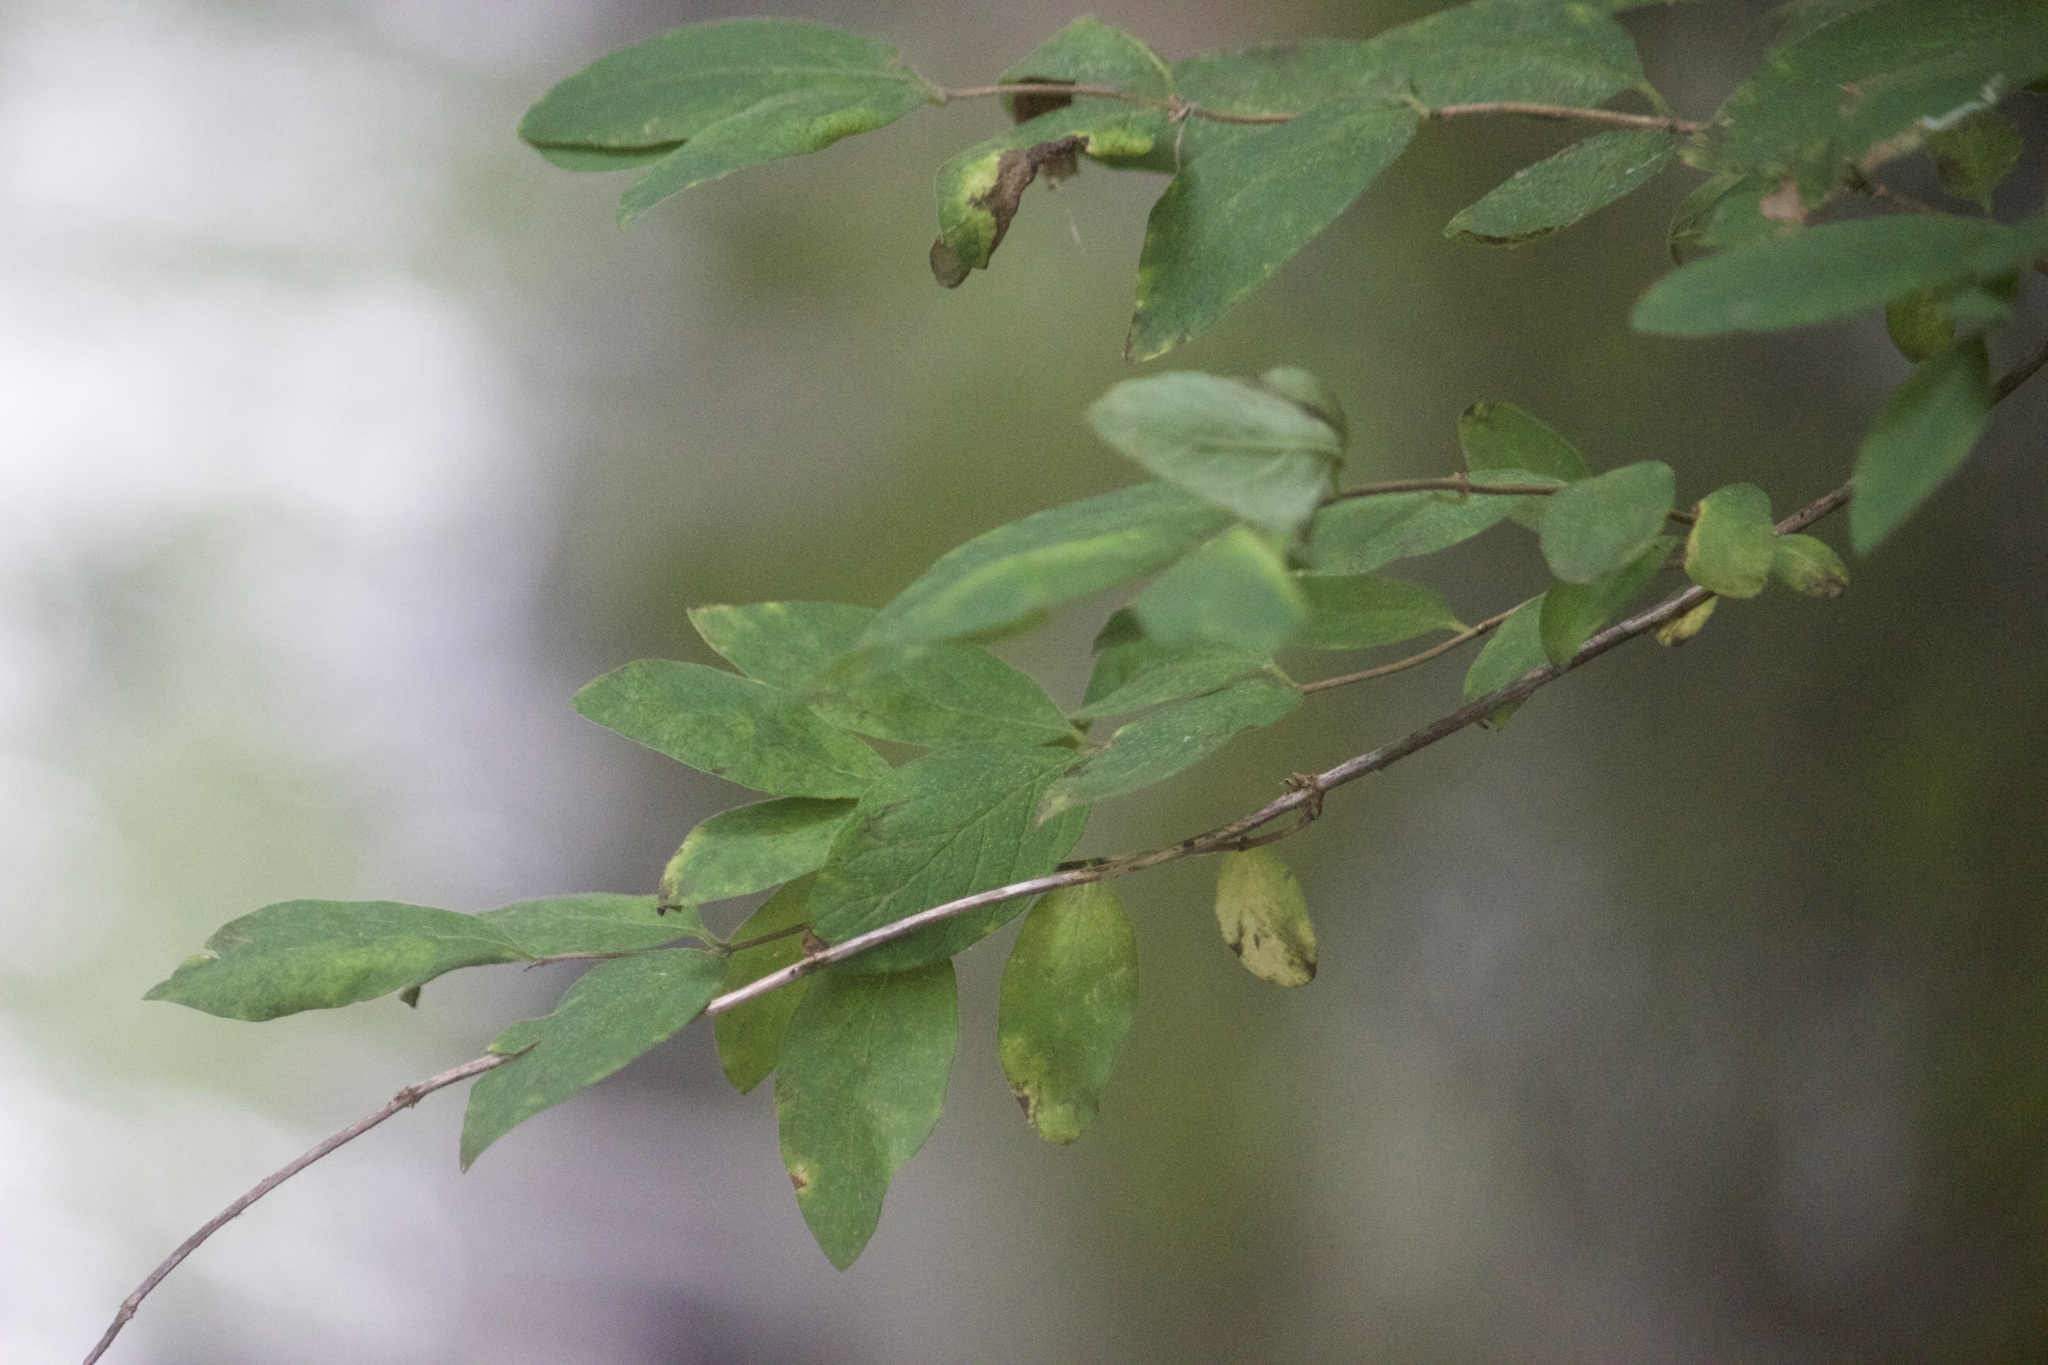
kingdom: Plantae
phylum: Tracheophyta
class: Magnoliopsida
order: Dipsacales
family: Caprifoliaceae
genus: Lonicera
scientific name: Lonicera
